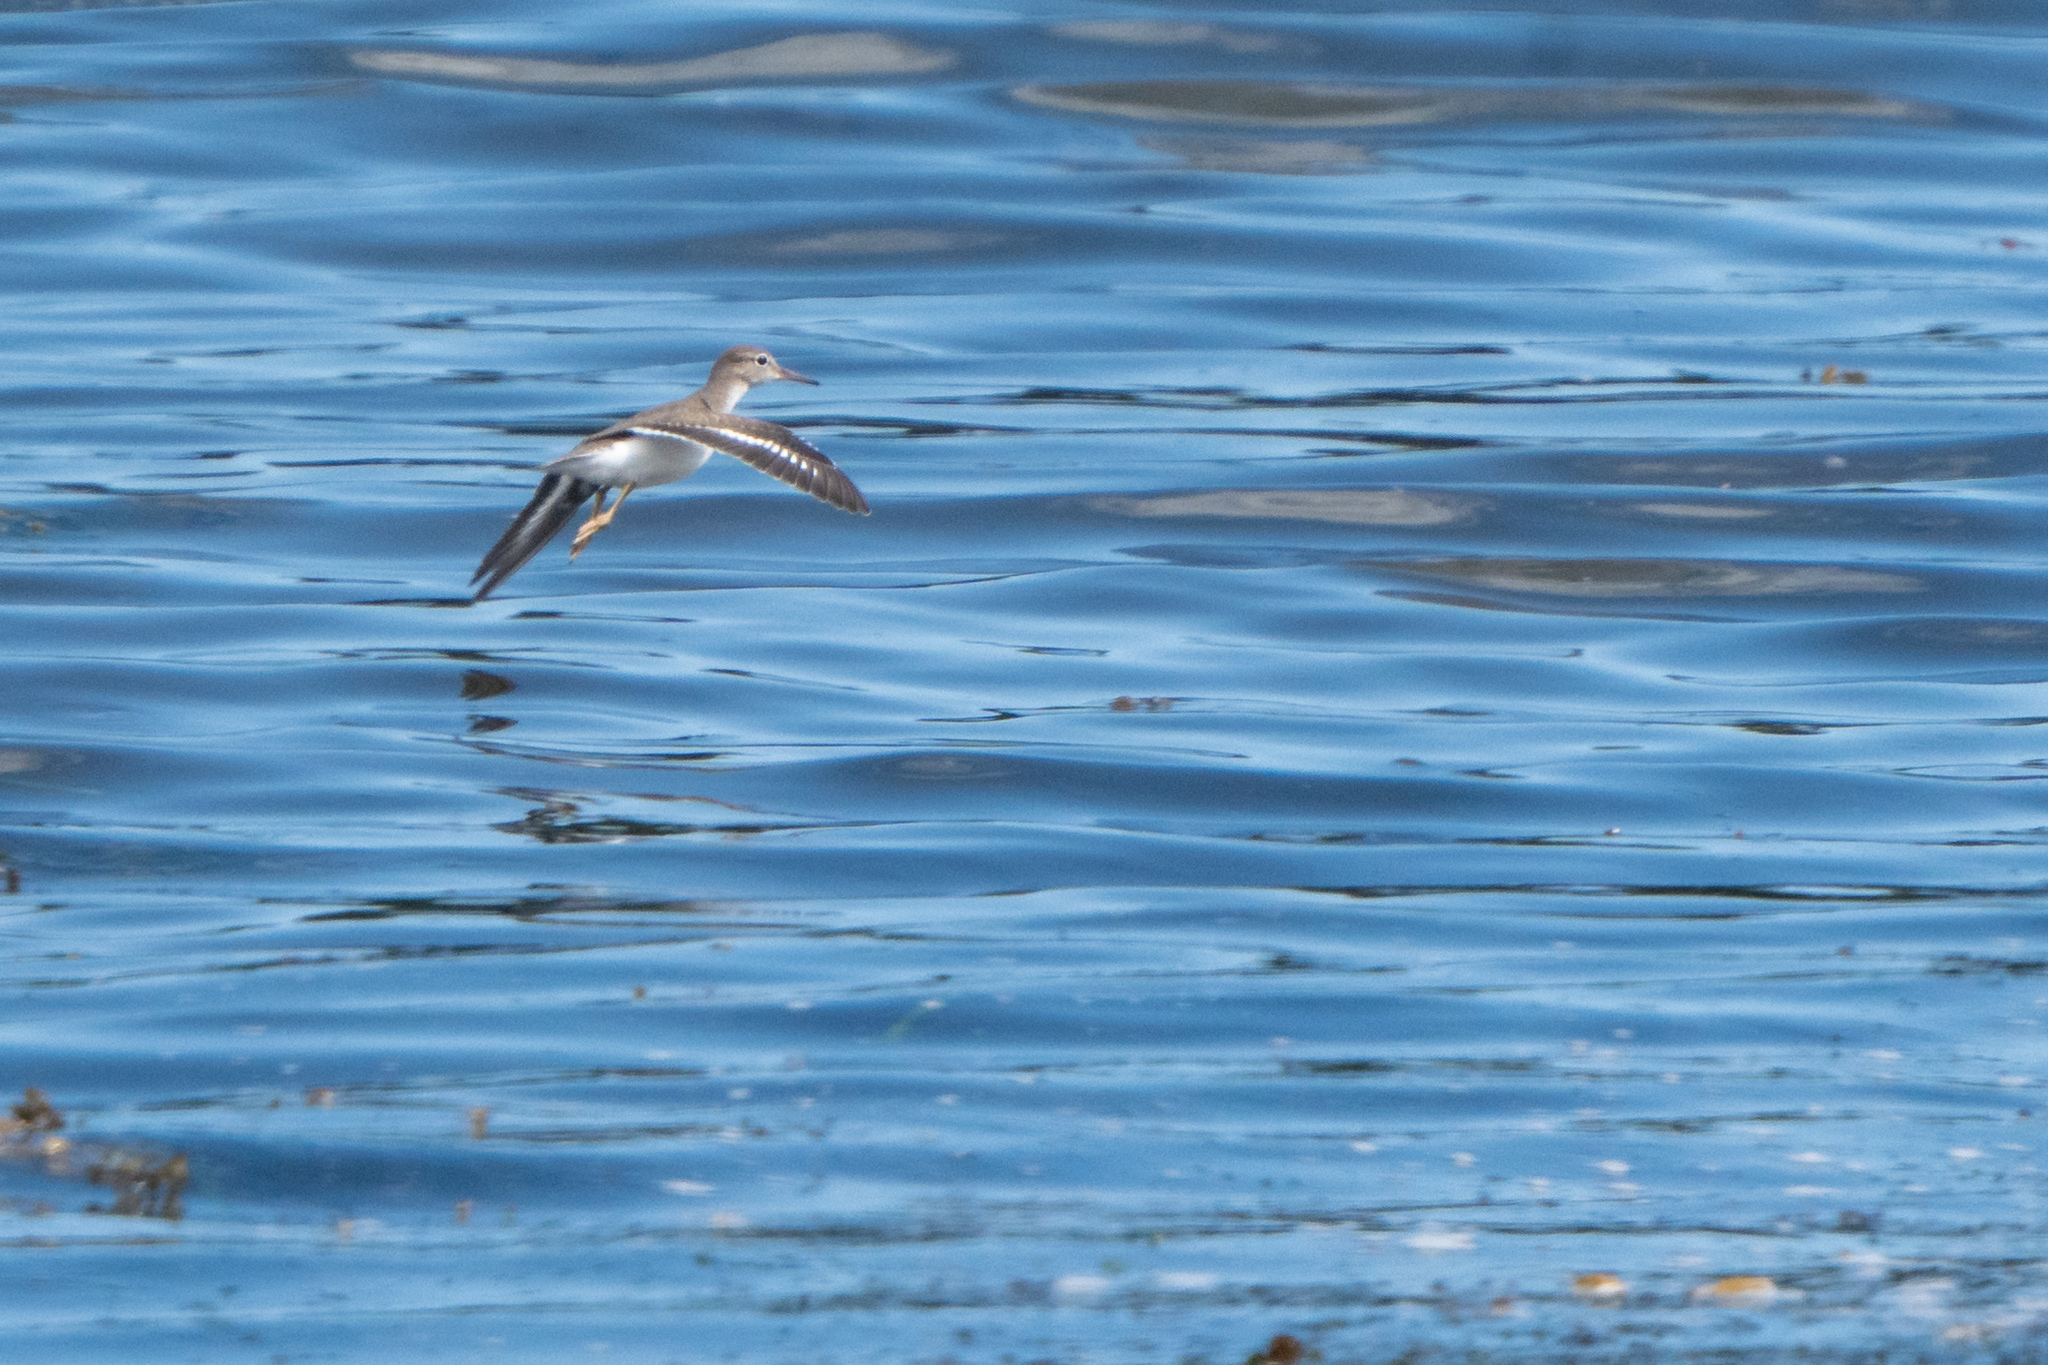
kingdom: Animalia
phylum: Chordata
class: Aves
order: Charadriiformes
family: Scolopacidae
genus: Actitis
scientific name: Actitis macularius
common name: Spotted sandpiper
